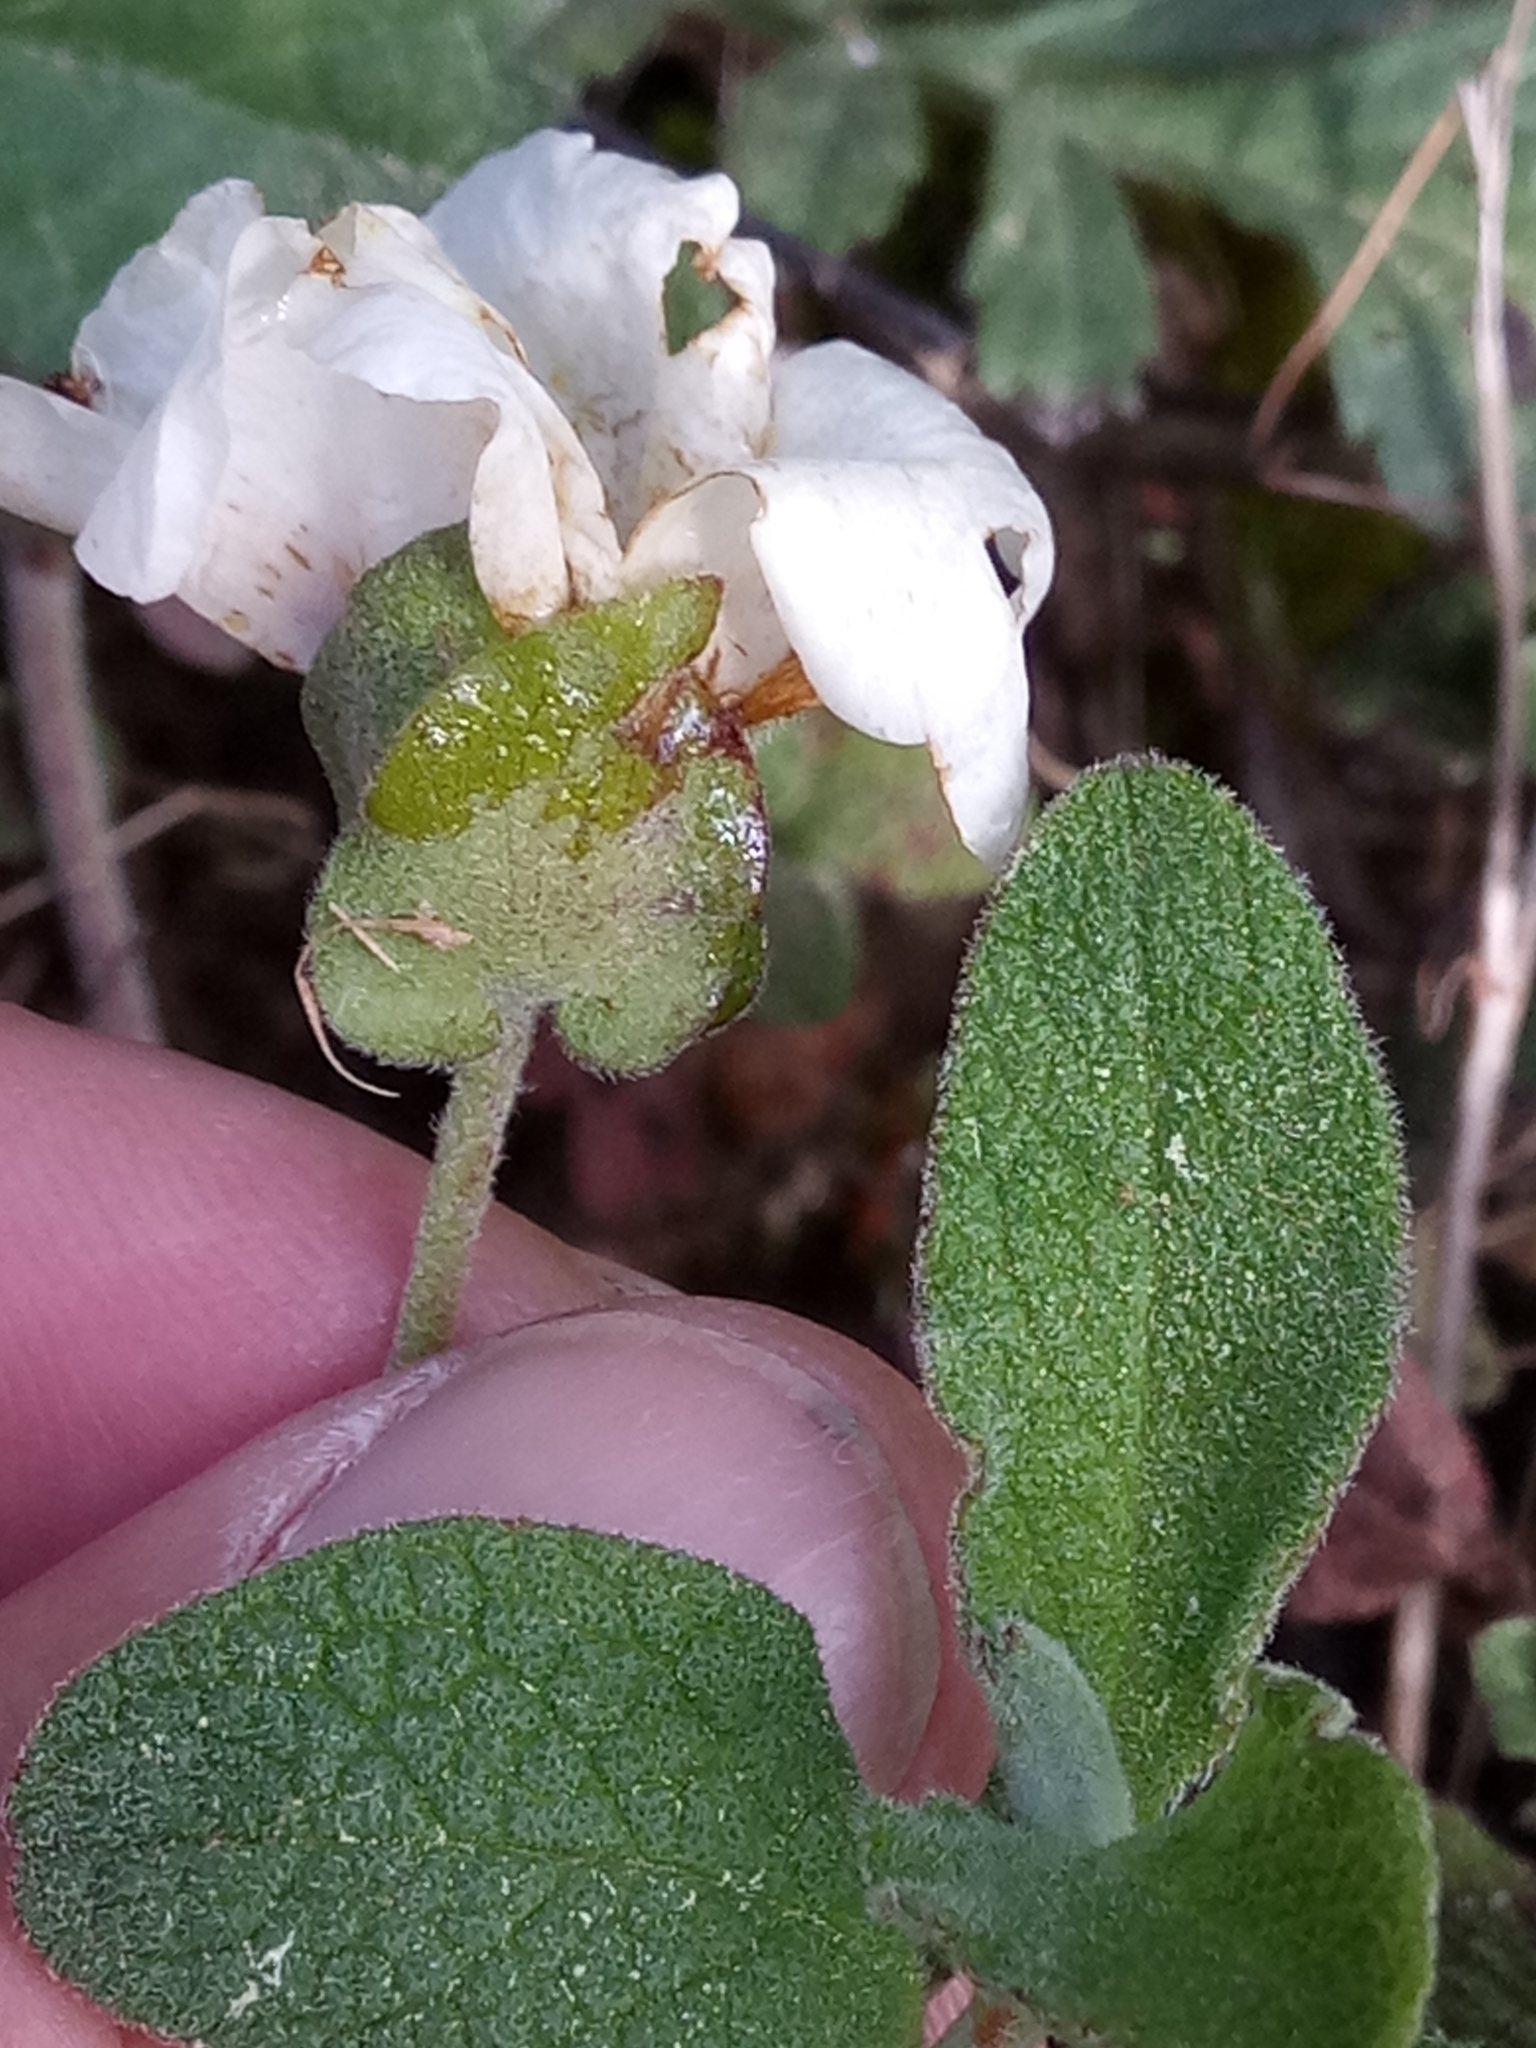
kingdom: Plantae
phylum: Tracheophyta
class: Magnoliopsida
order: Malvales
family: Cistaceae
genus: Cistus
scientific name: Cistus salviifolius
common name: Salvia cistus
